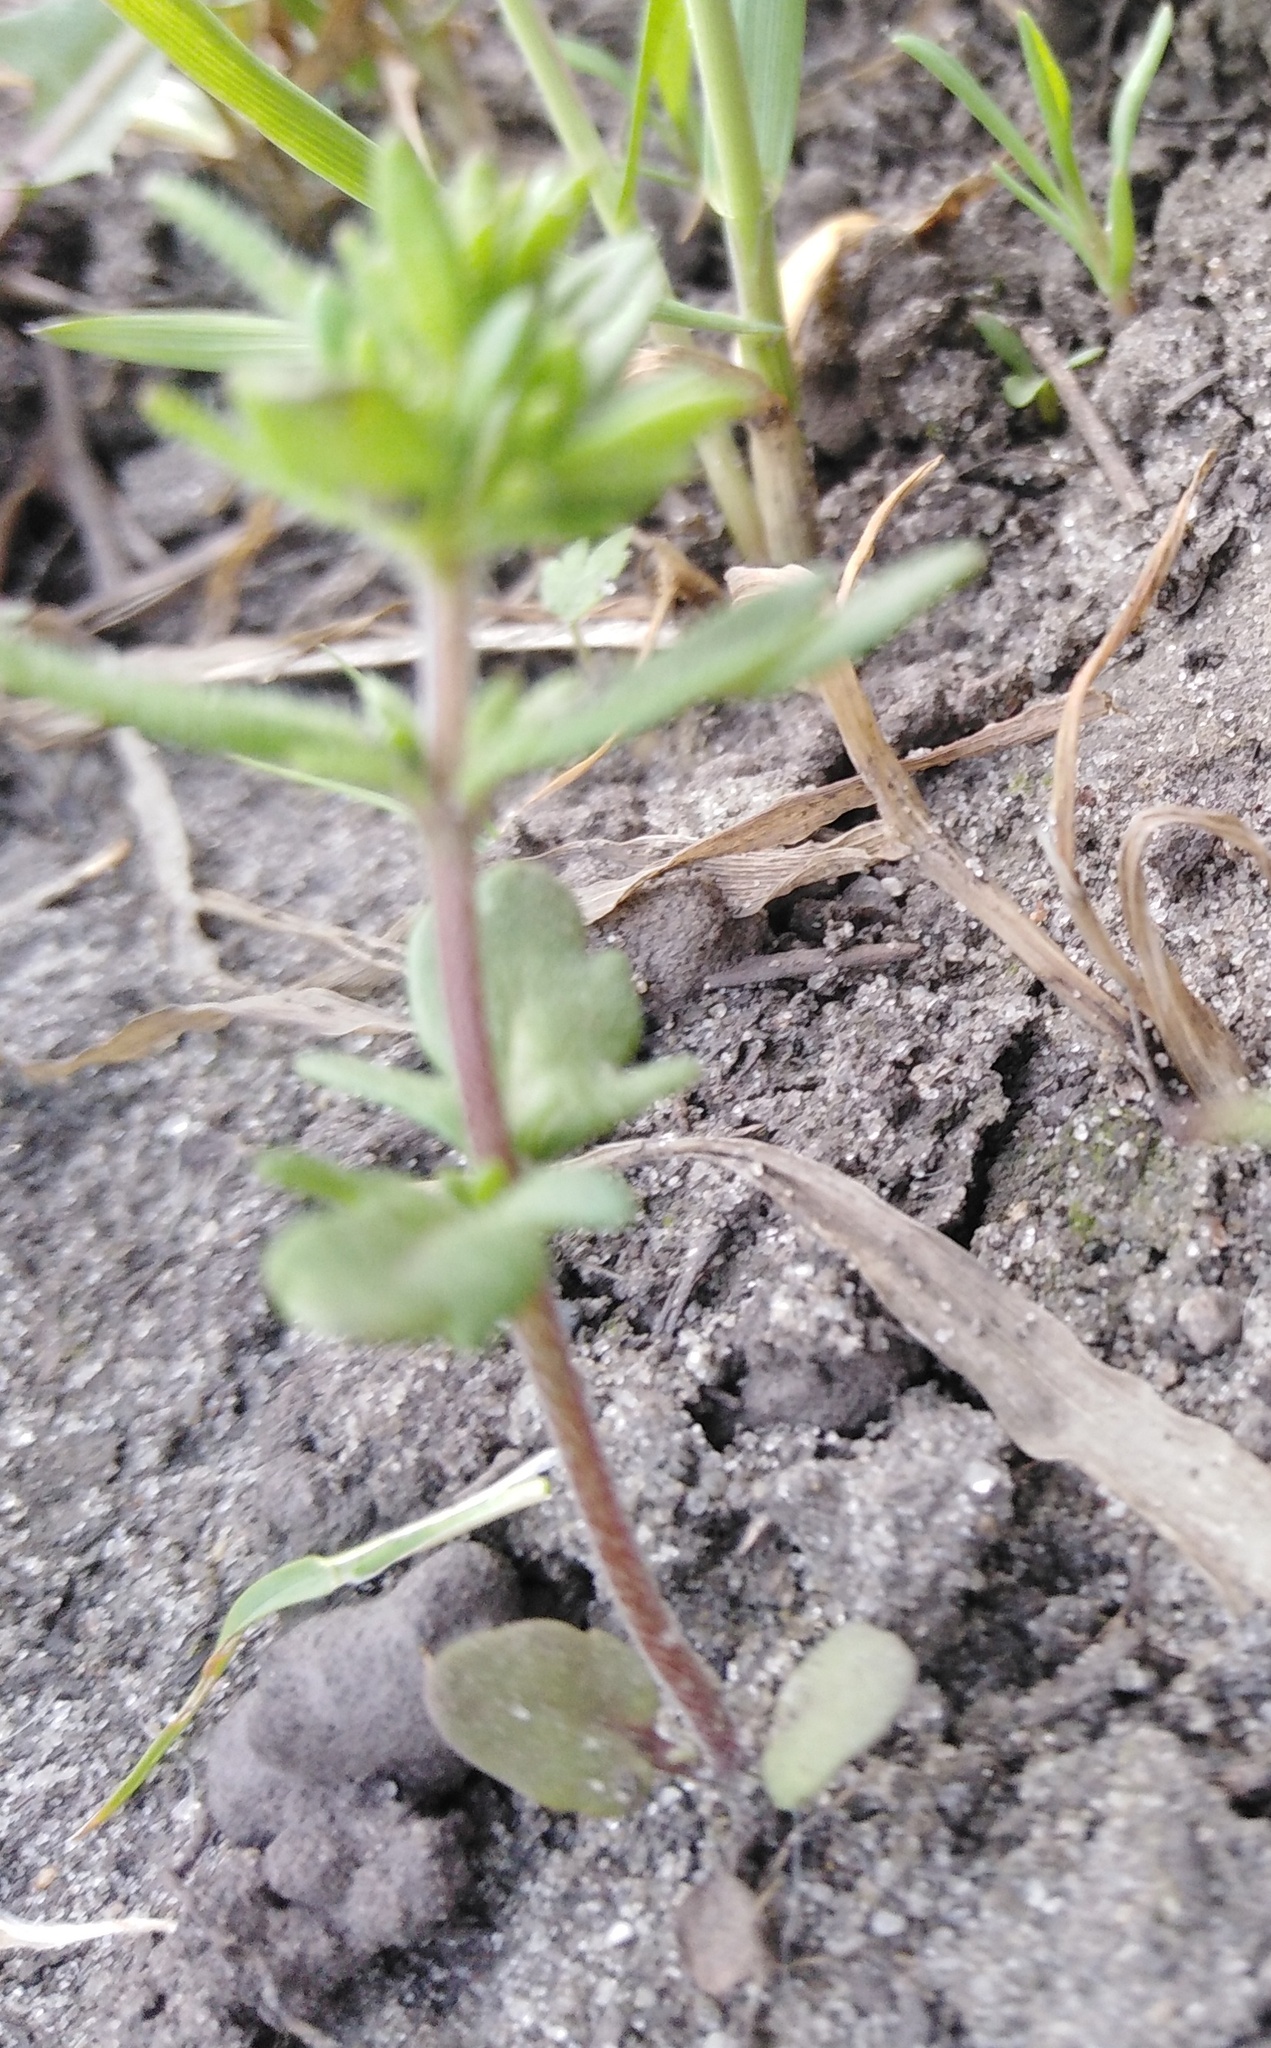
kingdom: Plantae
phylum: Tracheophyta
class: Magnoliopsida
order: Lamiales
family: Plantaginaceae
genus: Veronica
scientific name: Veronica verna
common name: Spring speedwell
